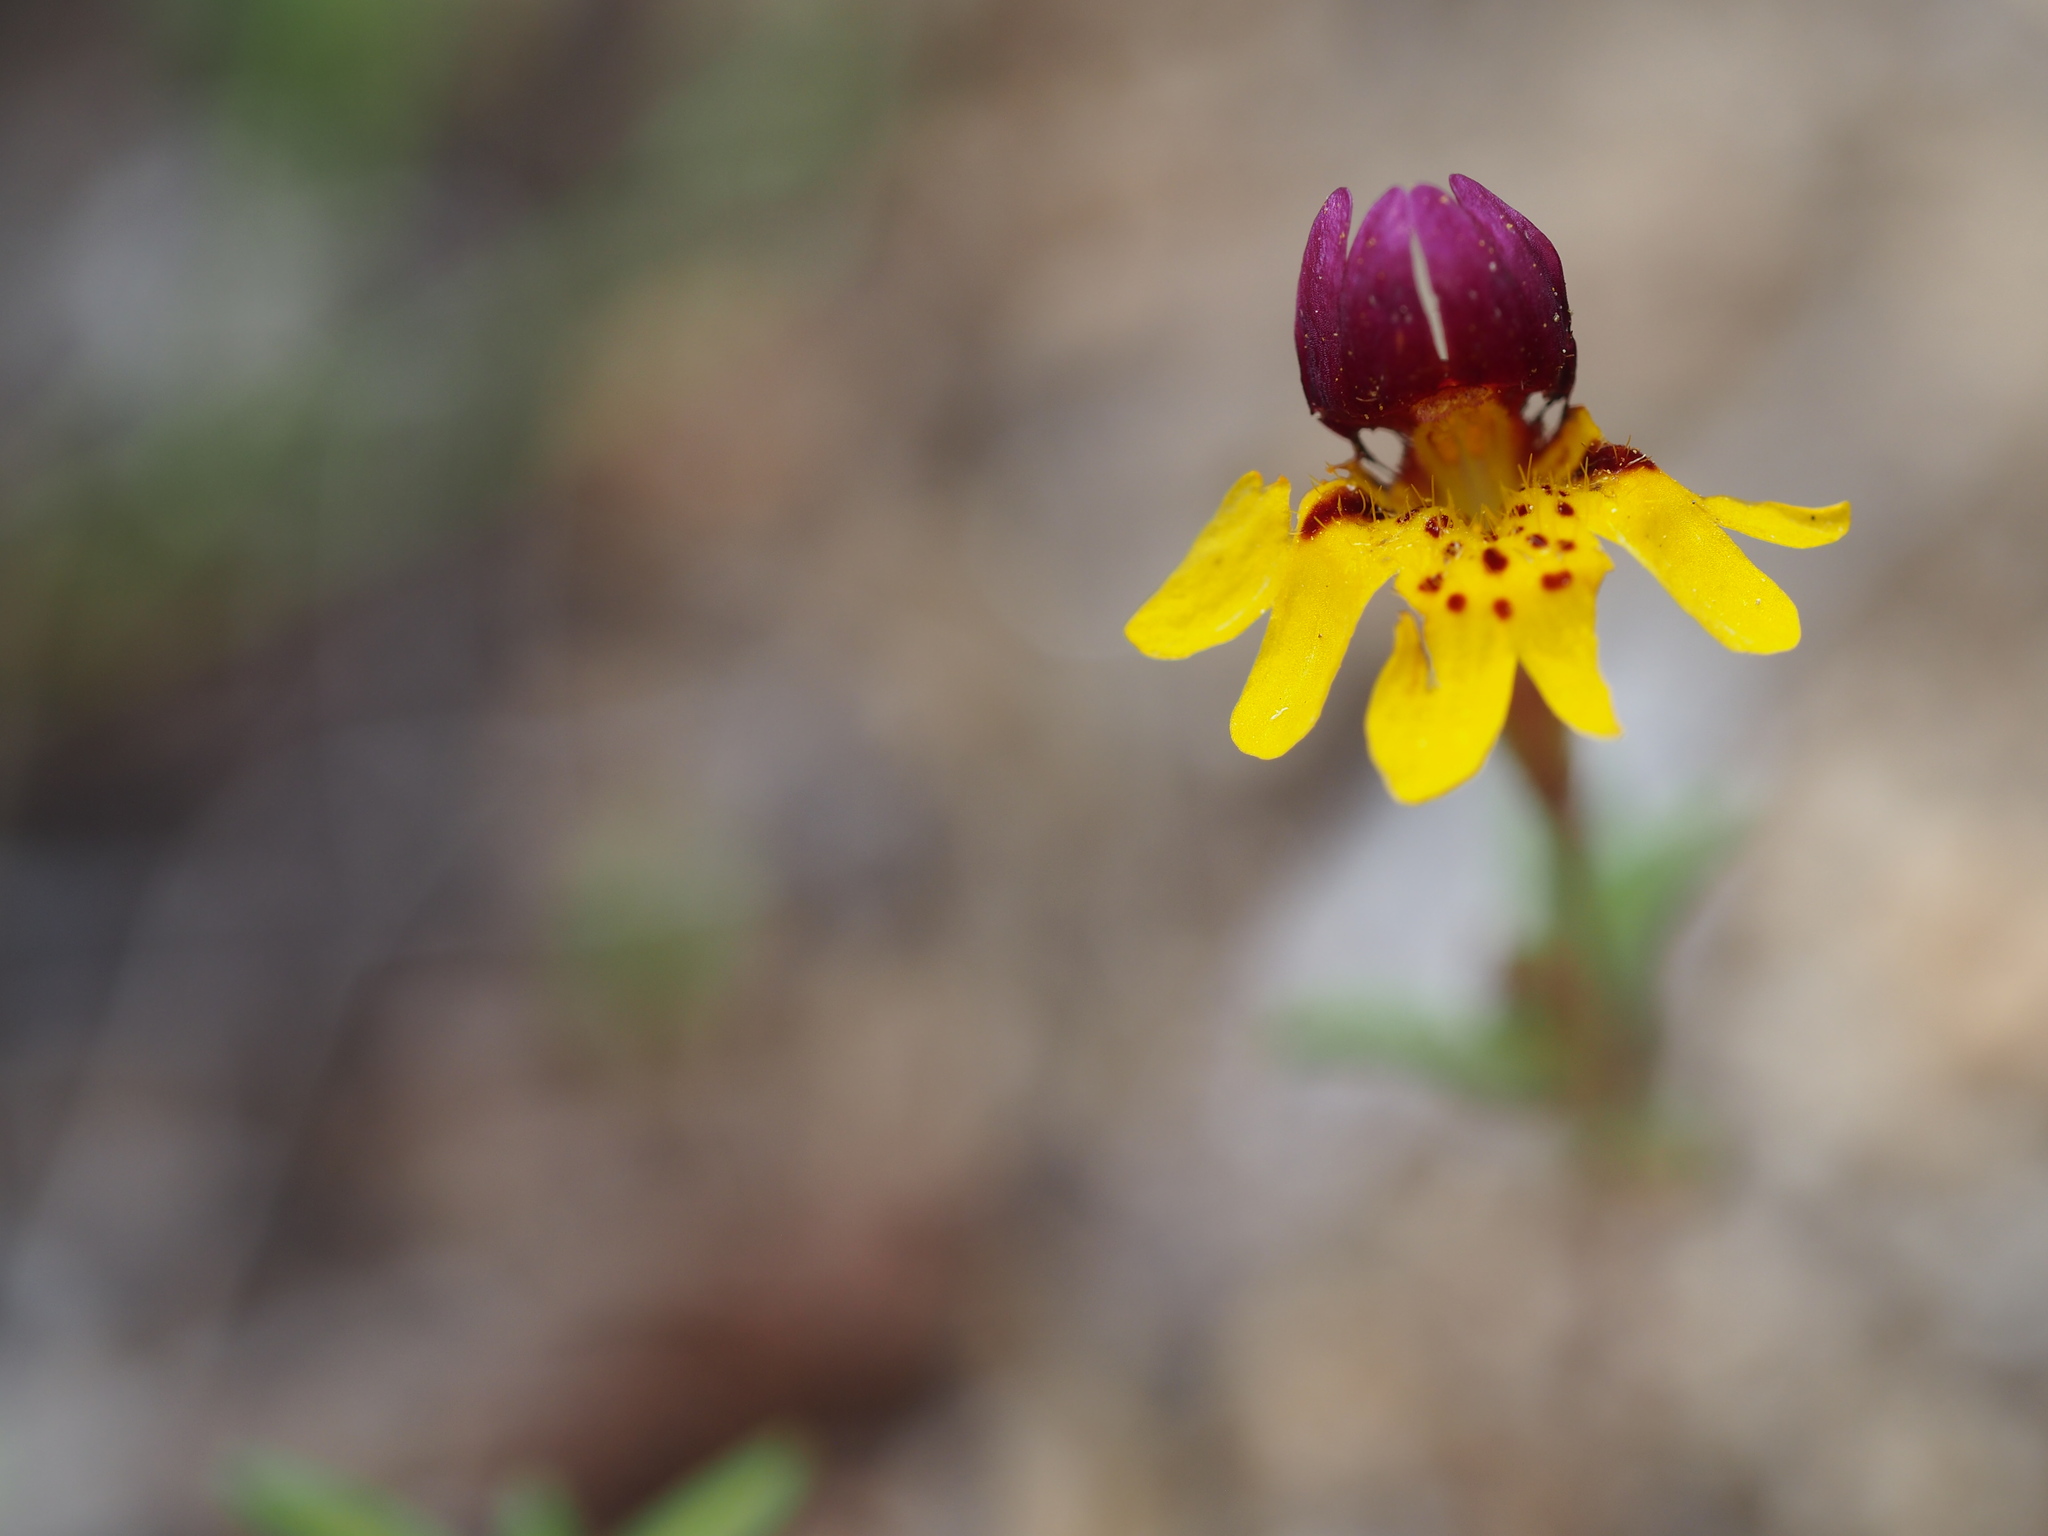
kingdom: Plantae
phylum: Tracheophyta
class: Magnoliopsida
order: Lamiales
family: Phrymaceae
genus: Erythranthe
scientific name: Erythranthe barbata
